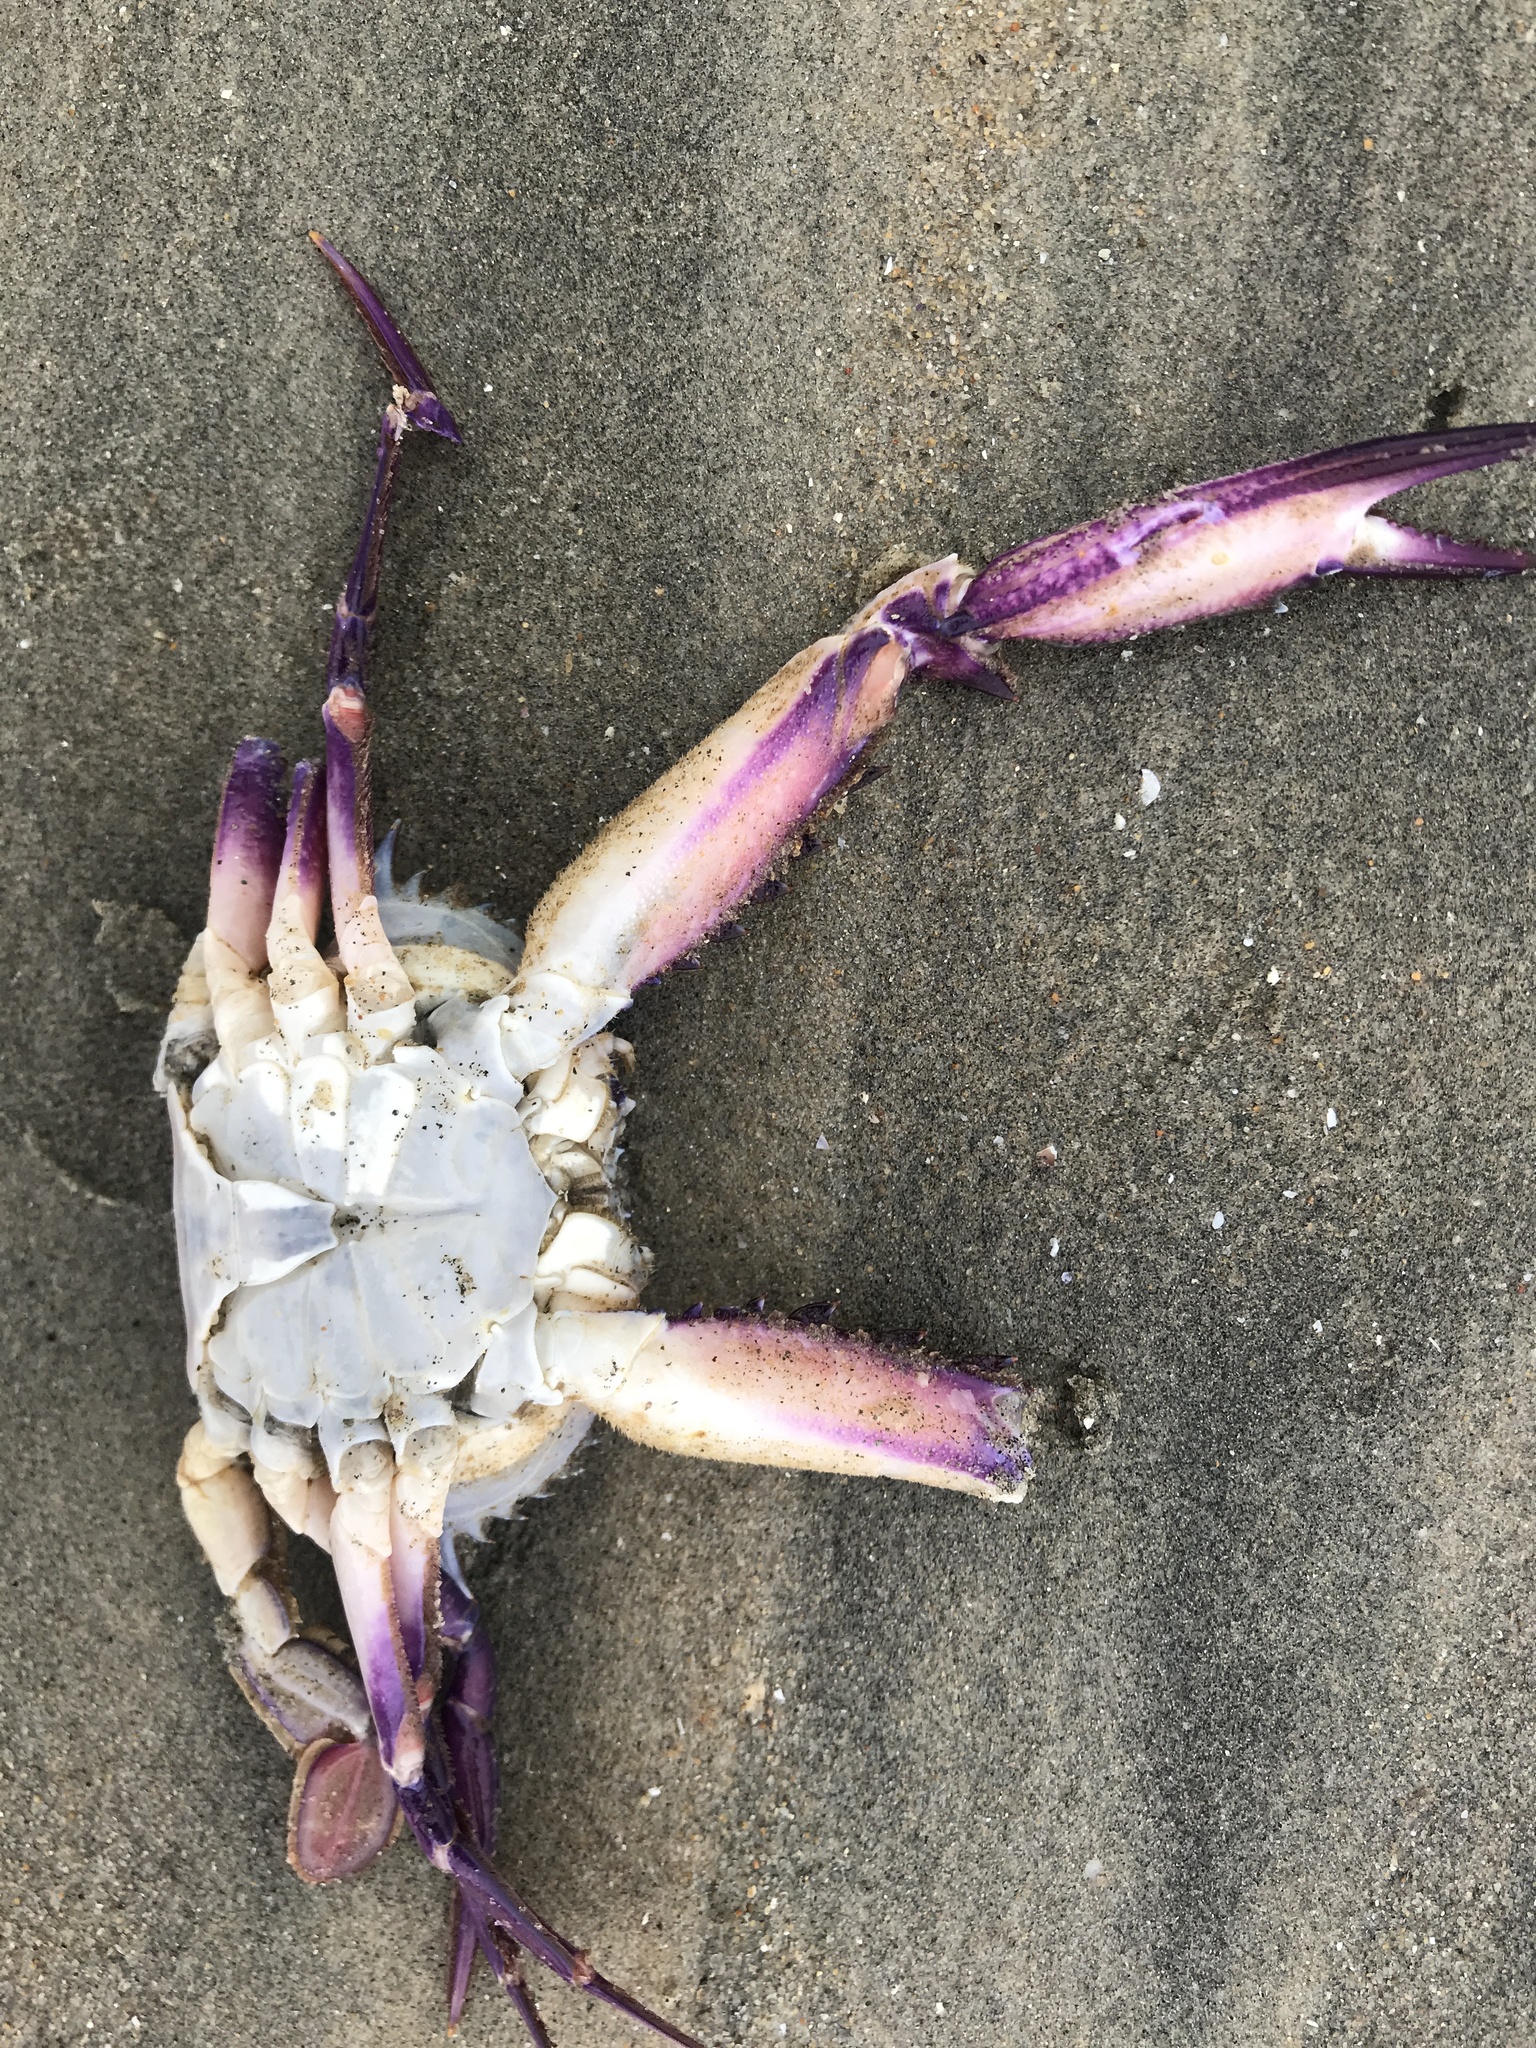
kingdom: Animalia
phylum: Arthropoda
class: Malacostraca
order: Decapoda
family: Portunidae
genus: Achelous
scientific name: Achelous xantusii
